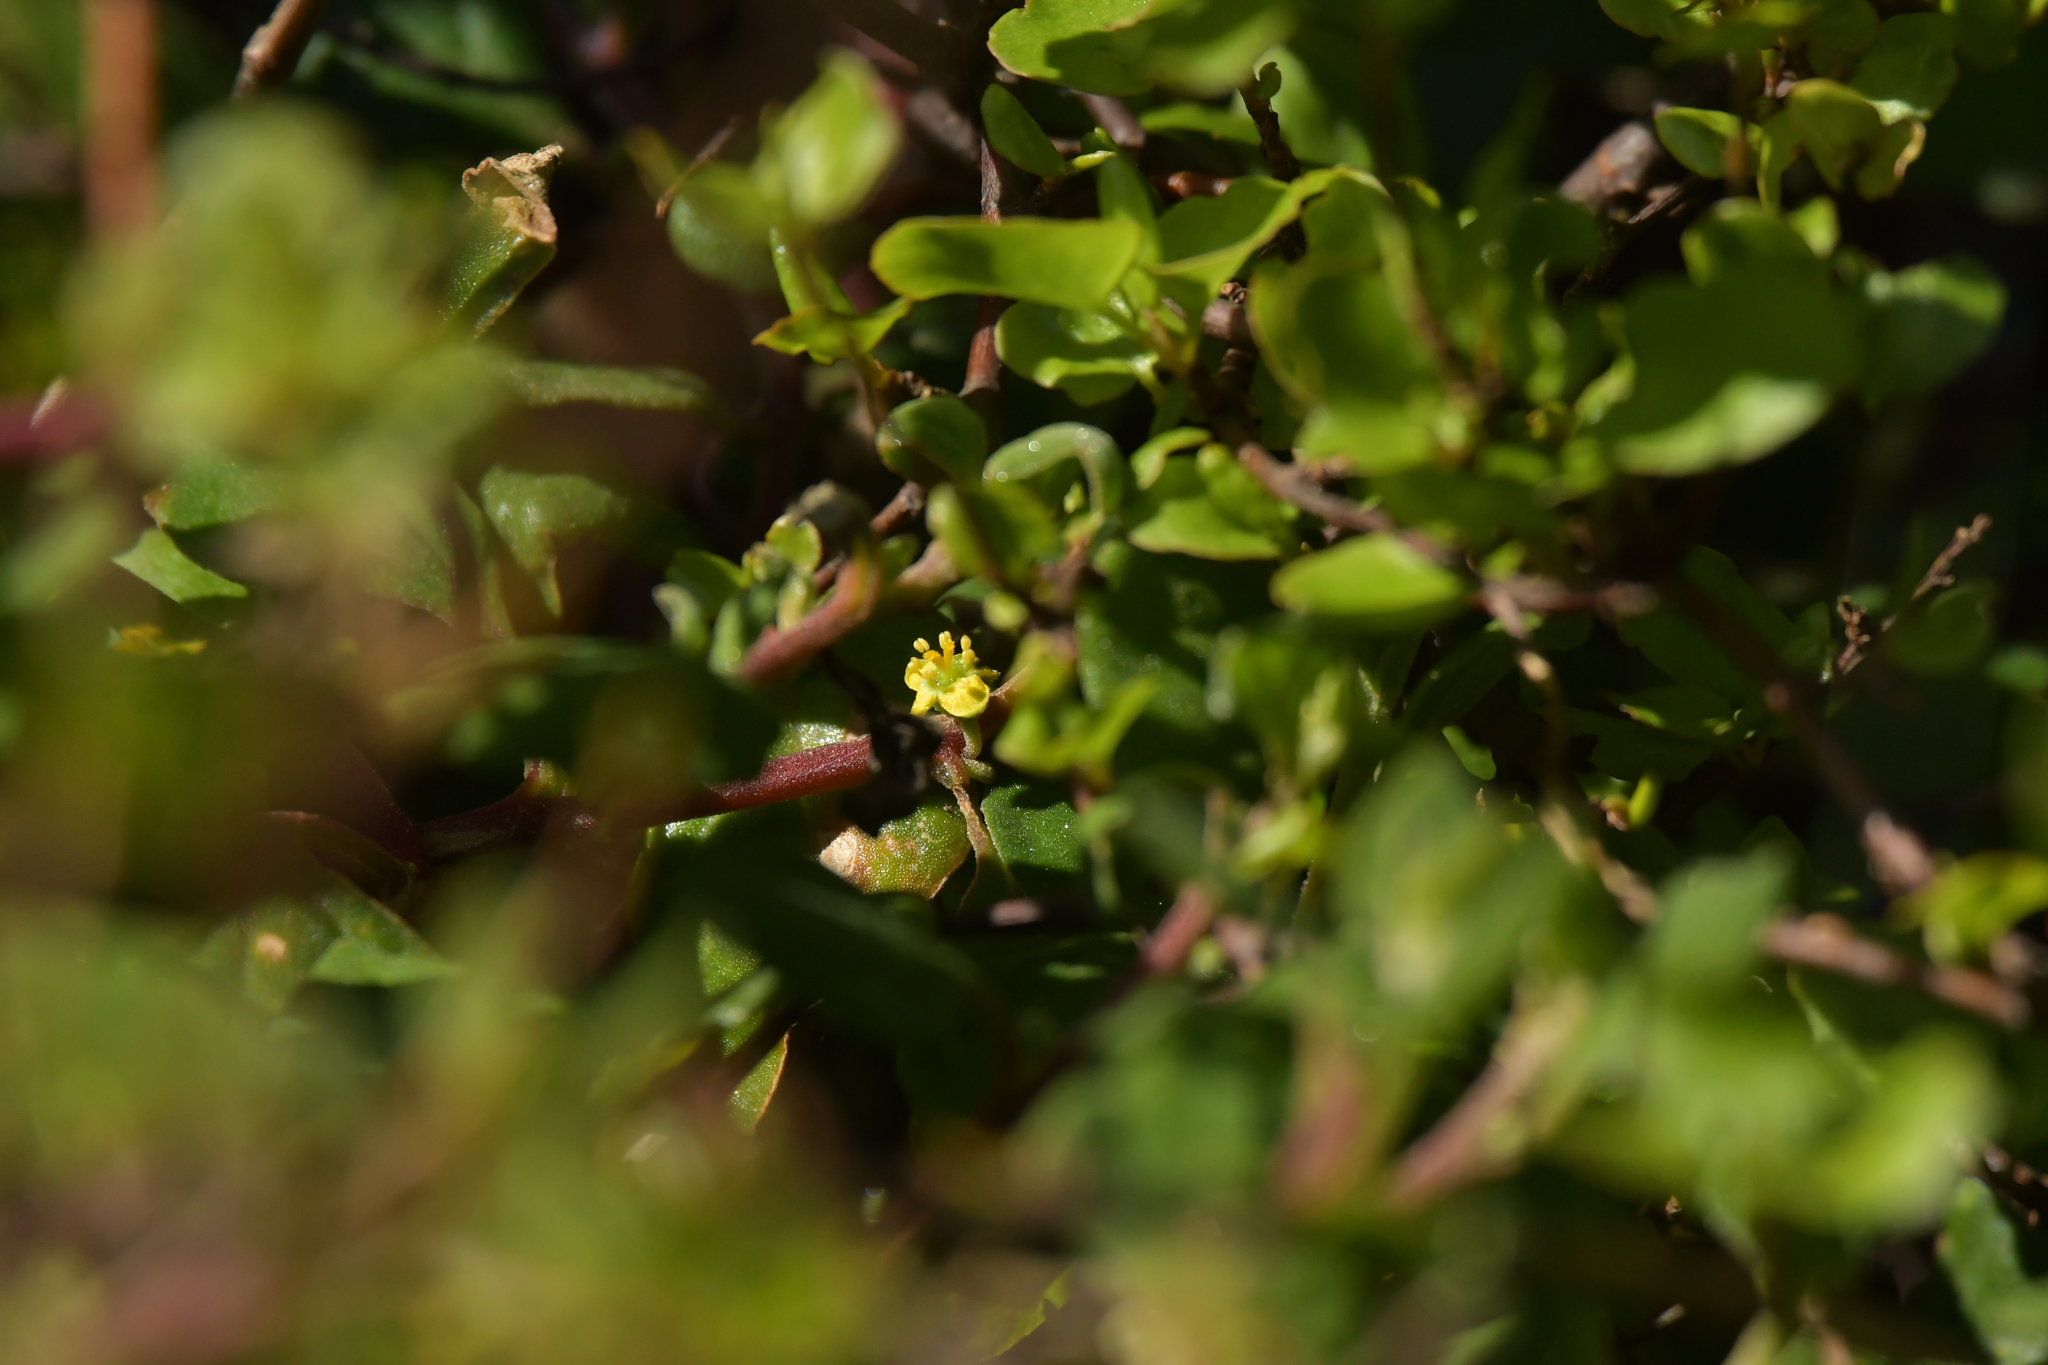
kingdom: Plantae
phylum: Tracheophyta
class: Magnoliopsida
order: Caryophyllales
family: Aizoaceae
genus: Tetragonia
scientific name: Tetragonia implexicoma
